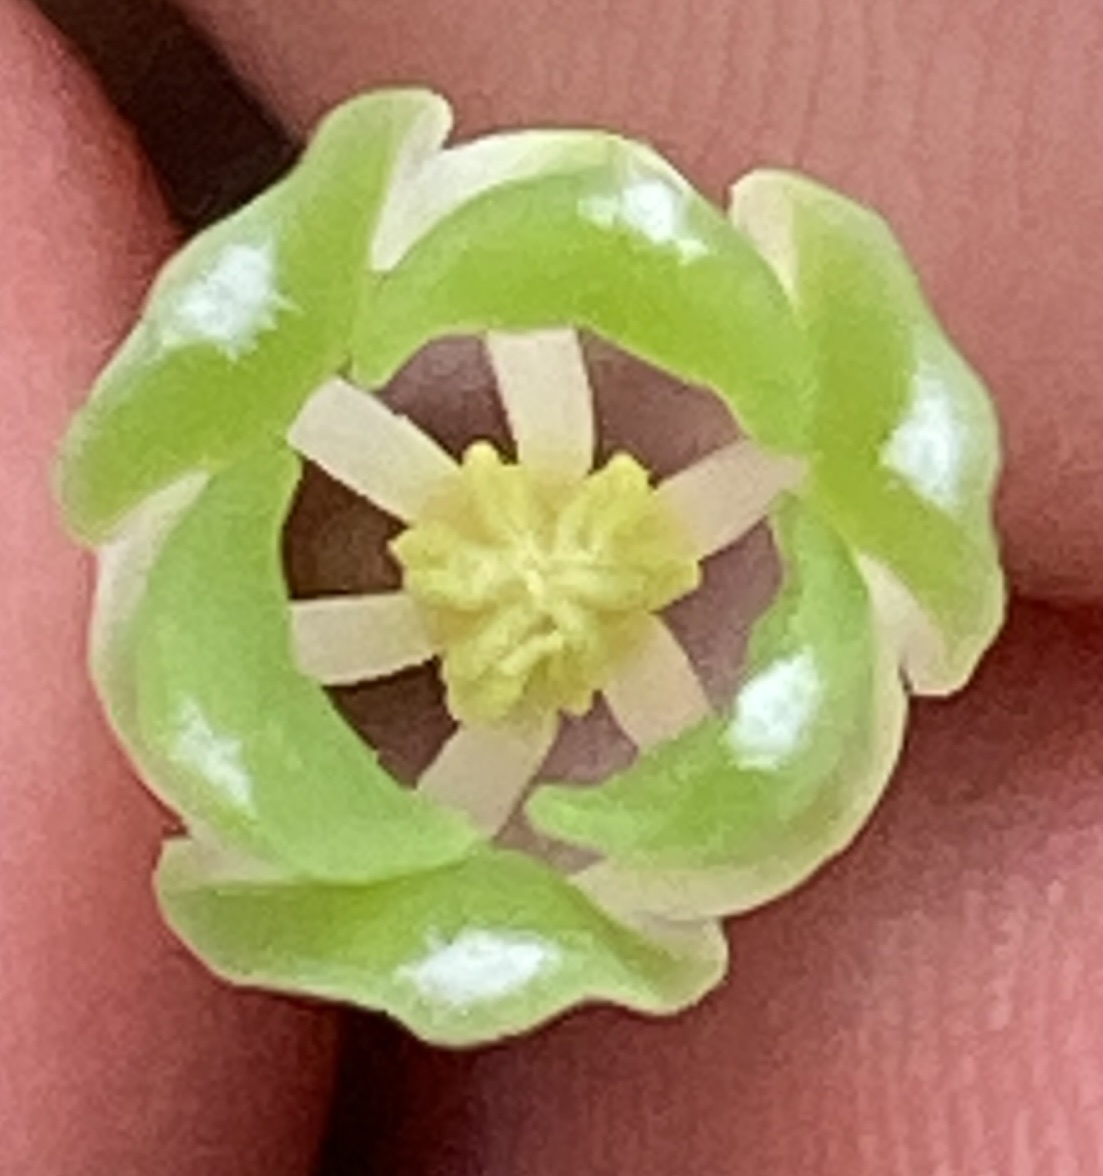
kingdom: Plantae
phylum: Tracheophyta
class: Liliopsida
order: Asparagales
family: Asparagaceae
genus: Polygonatum
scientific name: Polygonatum odoratum
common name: Angular solomon's-seal
